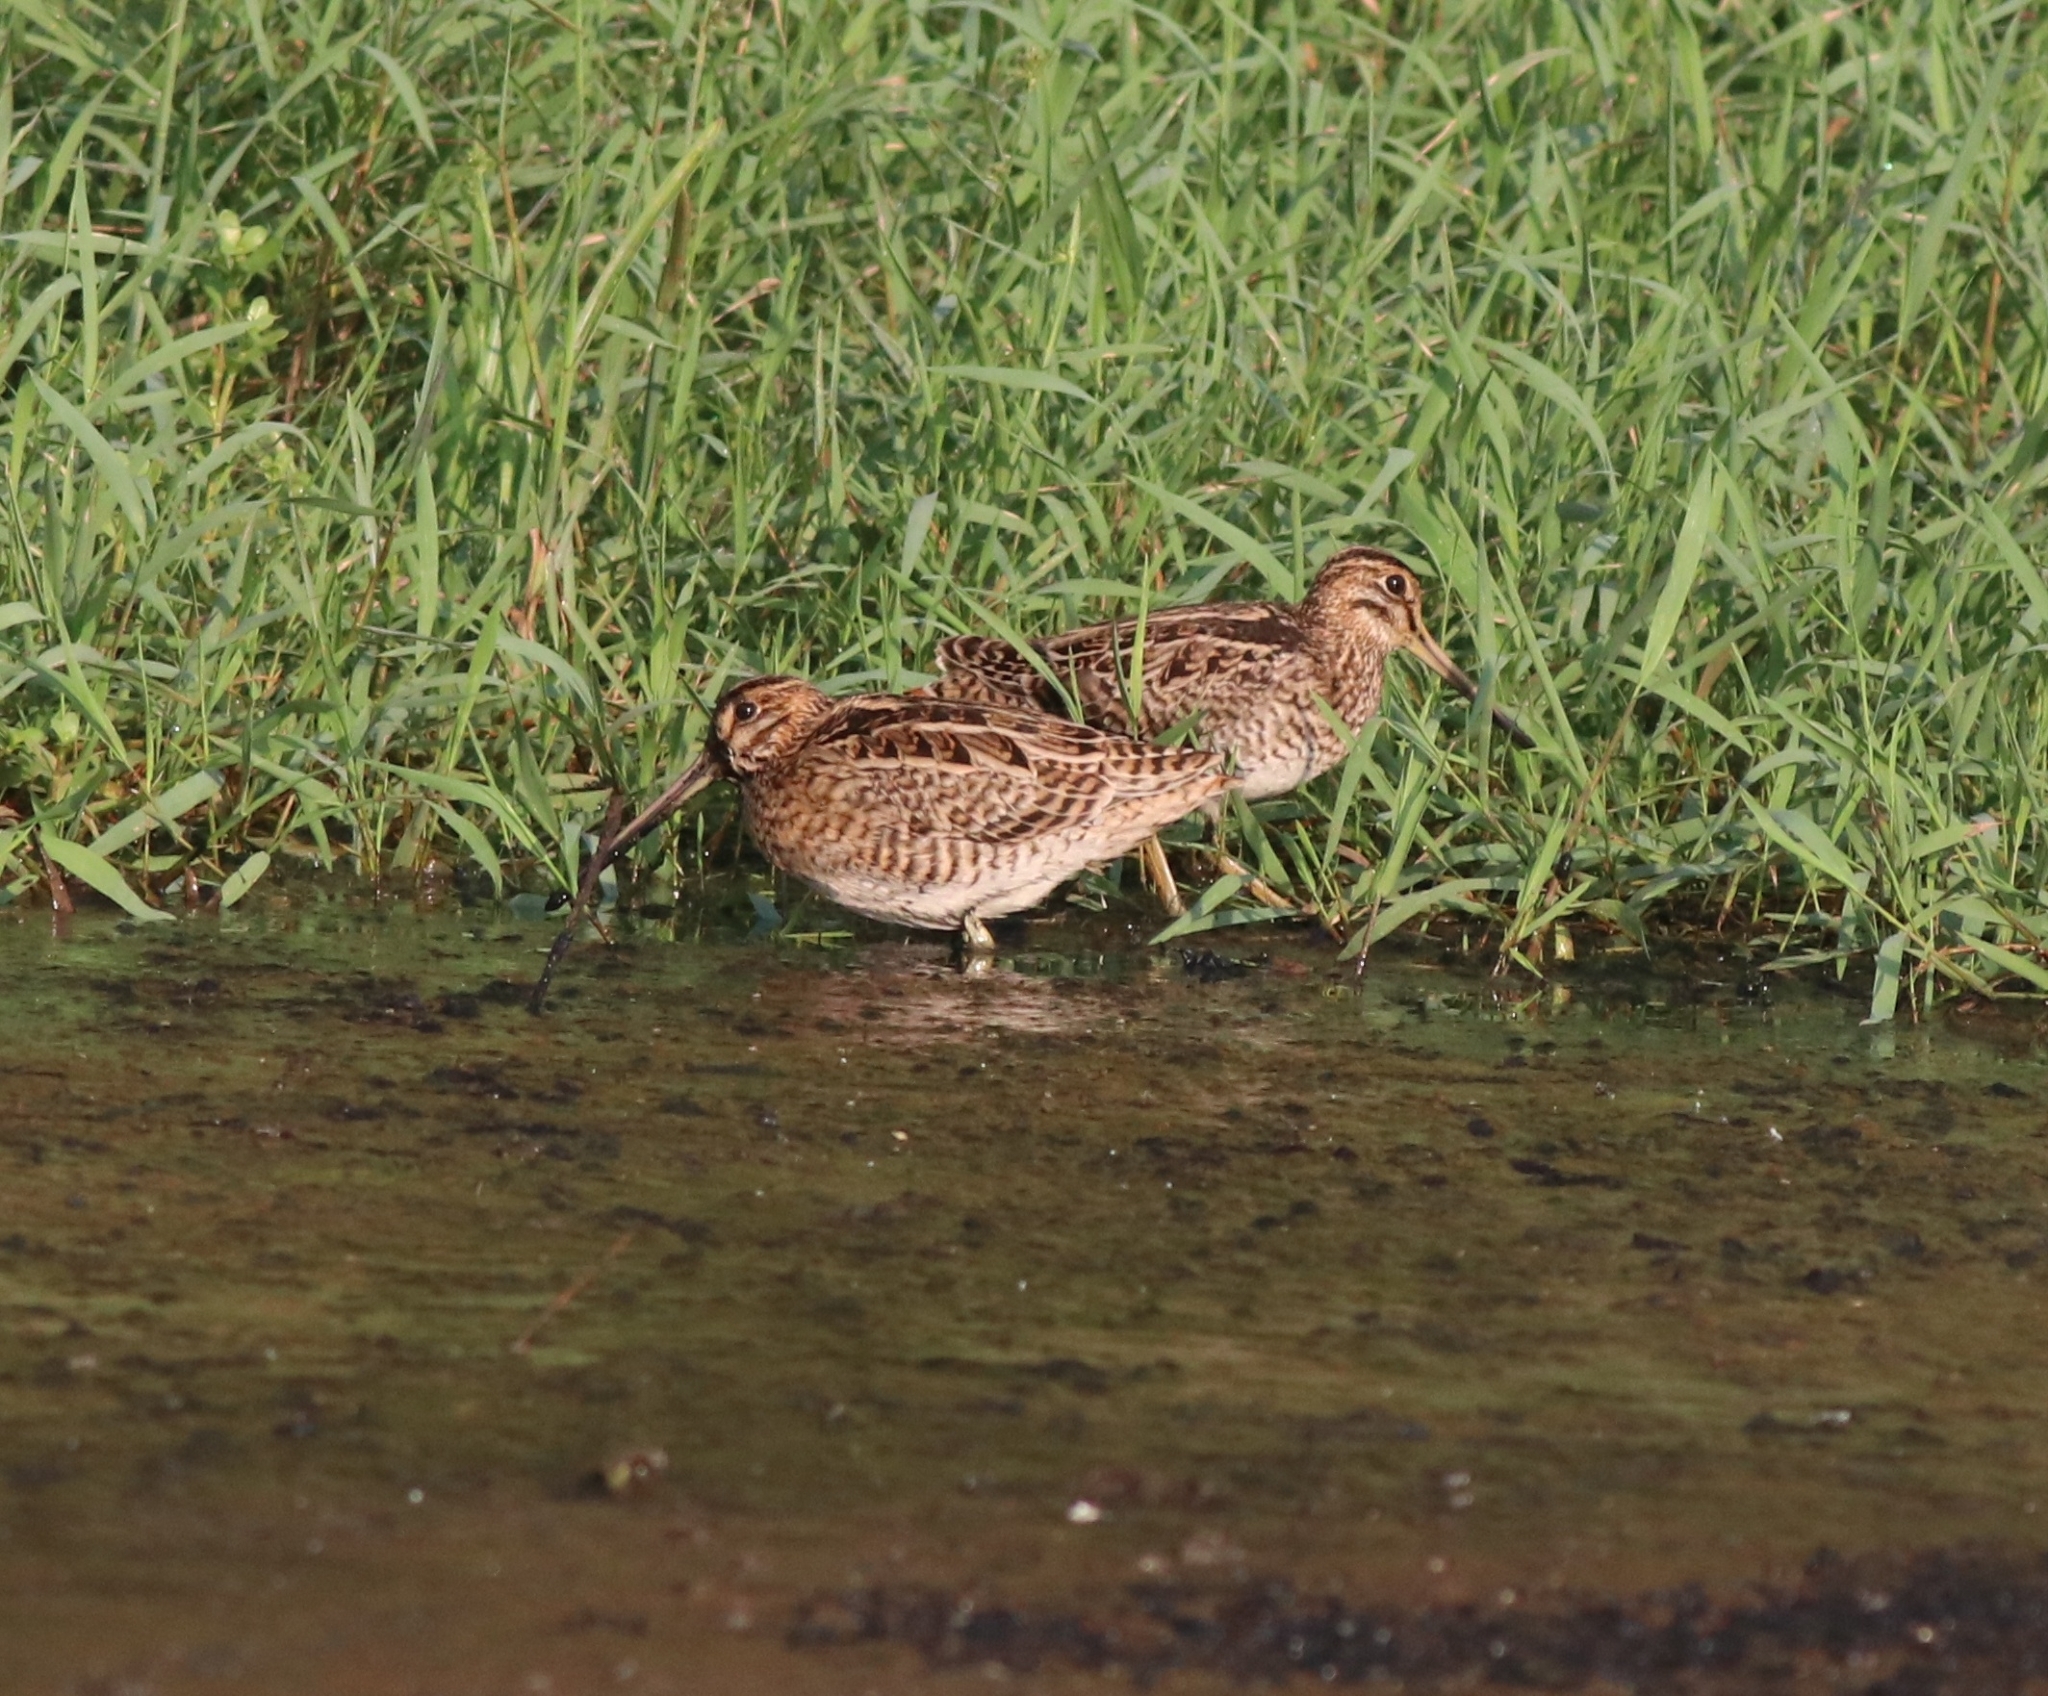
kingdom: Animalia
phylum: Chordata
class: Aves
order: Charadriiformes
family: Scolopacidae
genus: Gallinago
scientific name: Gallinago stenura
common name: Pin-tailed snipe
